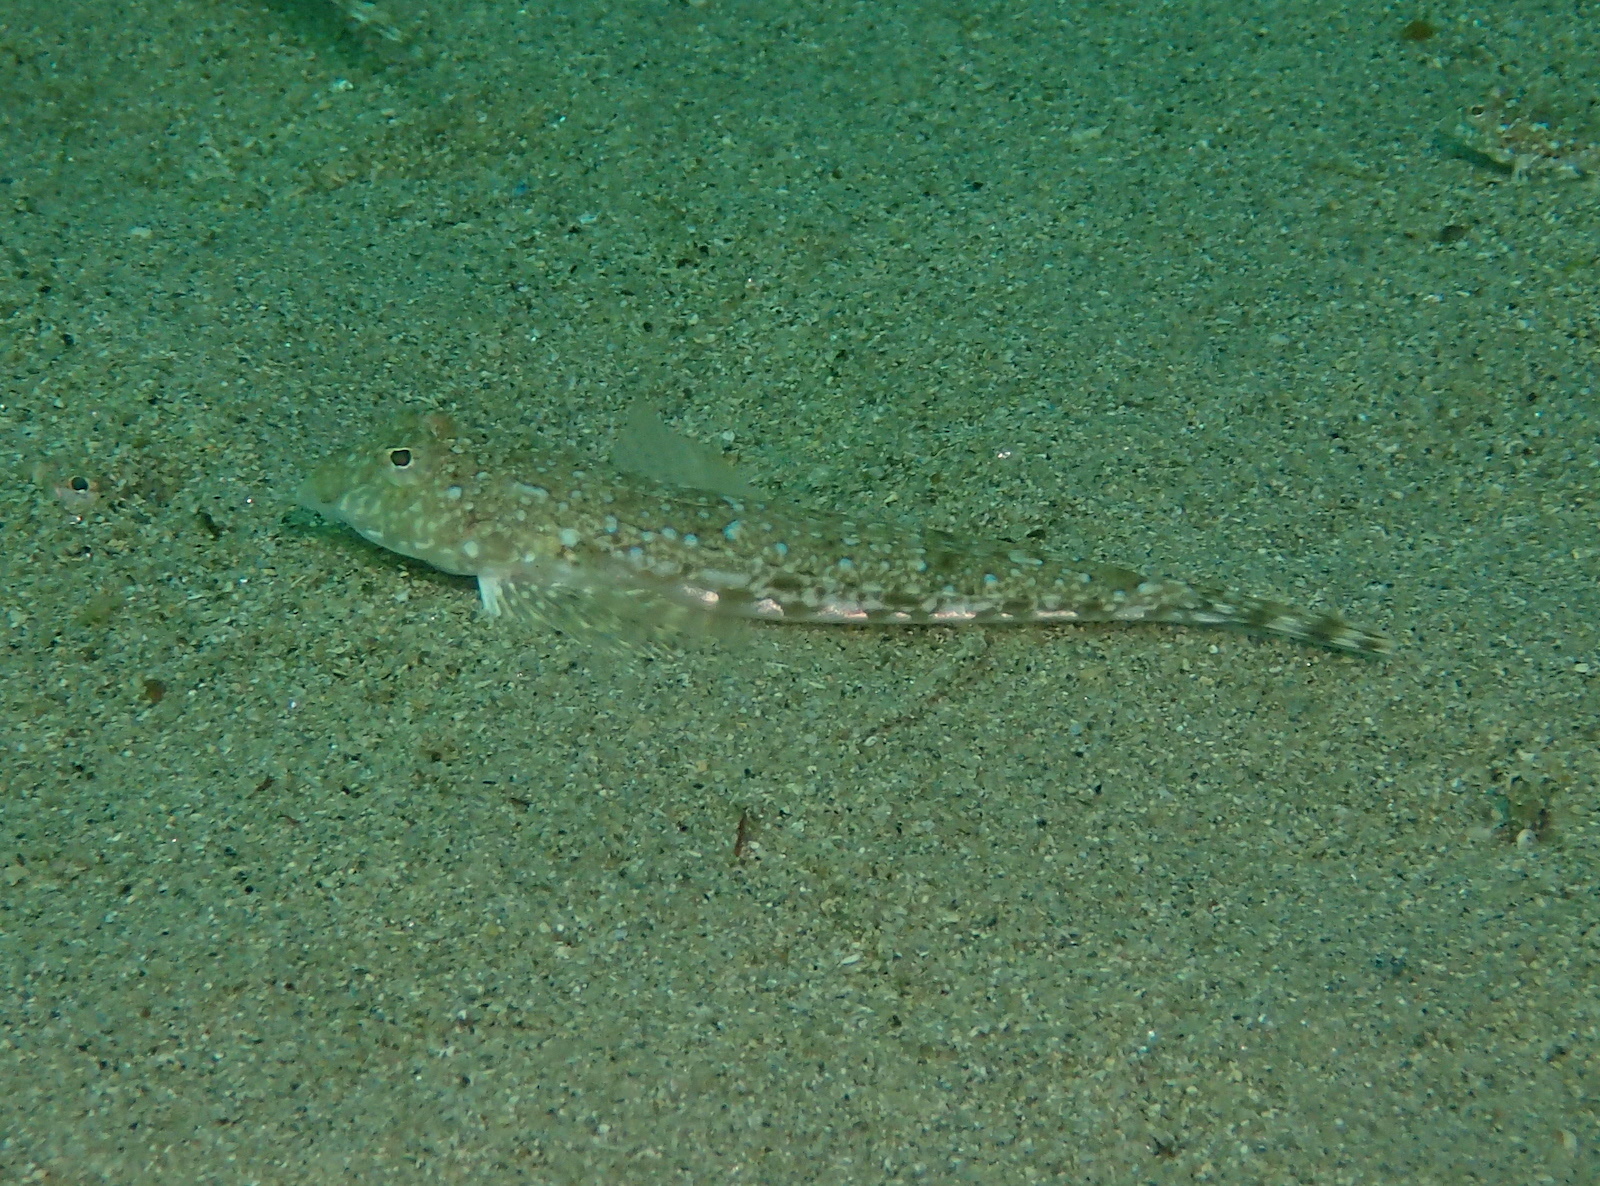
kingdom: Animalia
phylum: Chordata
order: Perciformes
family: Callionymidae
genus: Callionymus
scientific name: Callionymus lyra
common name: Dragonet
